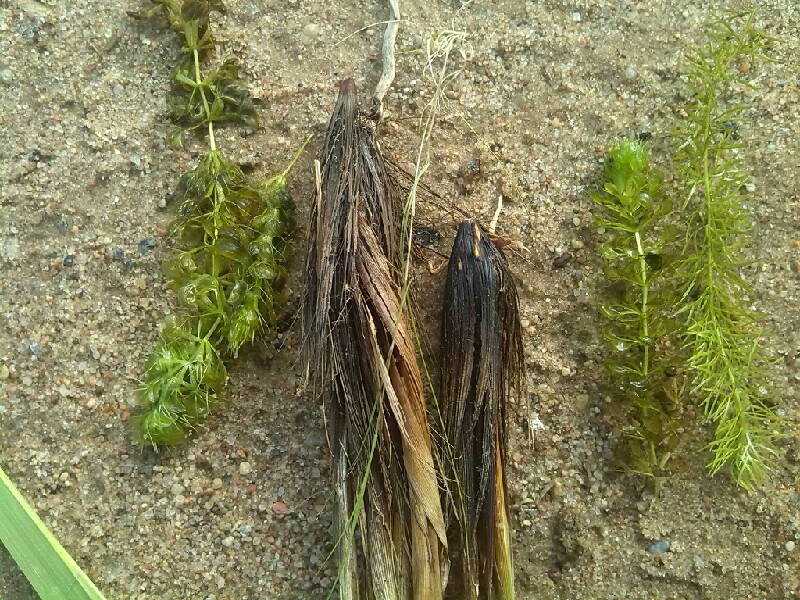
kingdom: Plantae
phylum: Tracheophyta
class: Liliopsida
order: Poales
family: Cyperaceae
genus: Carex
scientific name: Carex appropinquata
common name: Fibrous tussock-sedge
